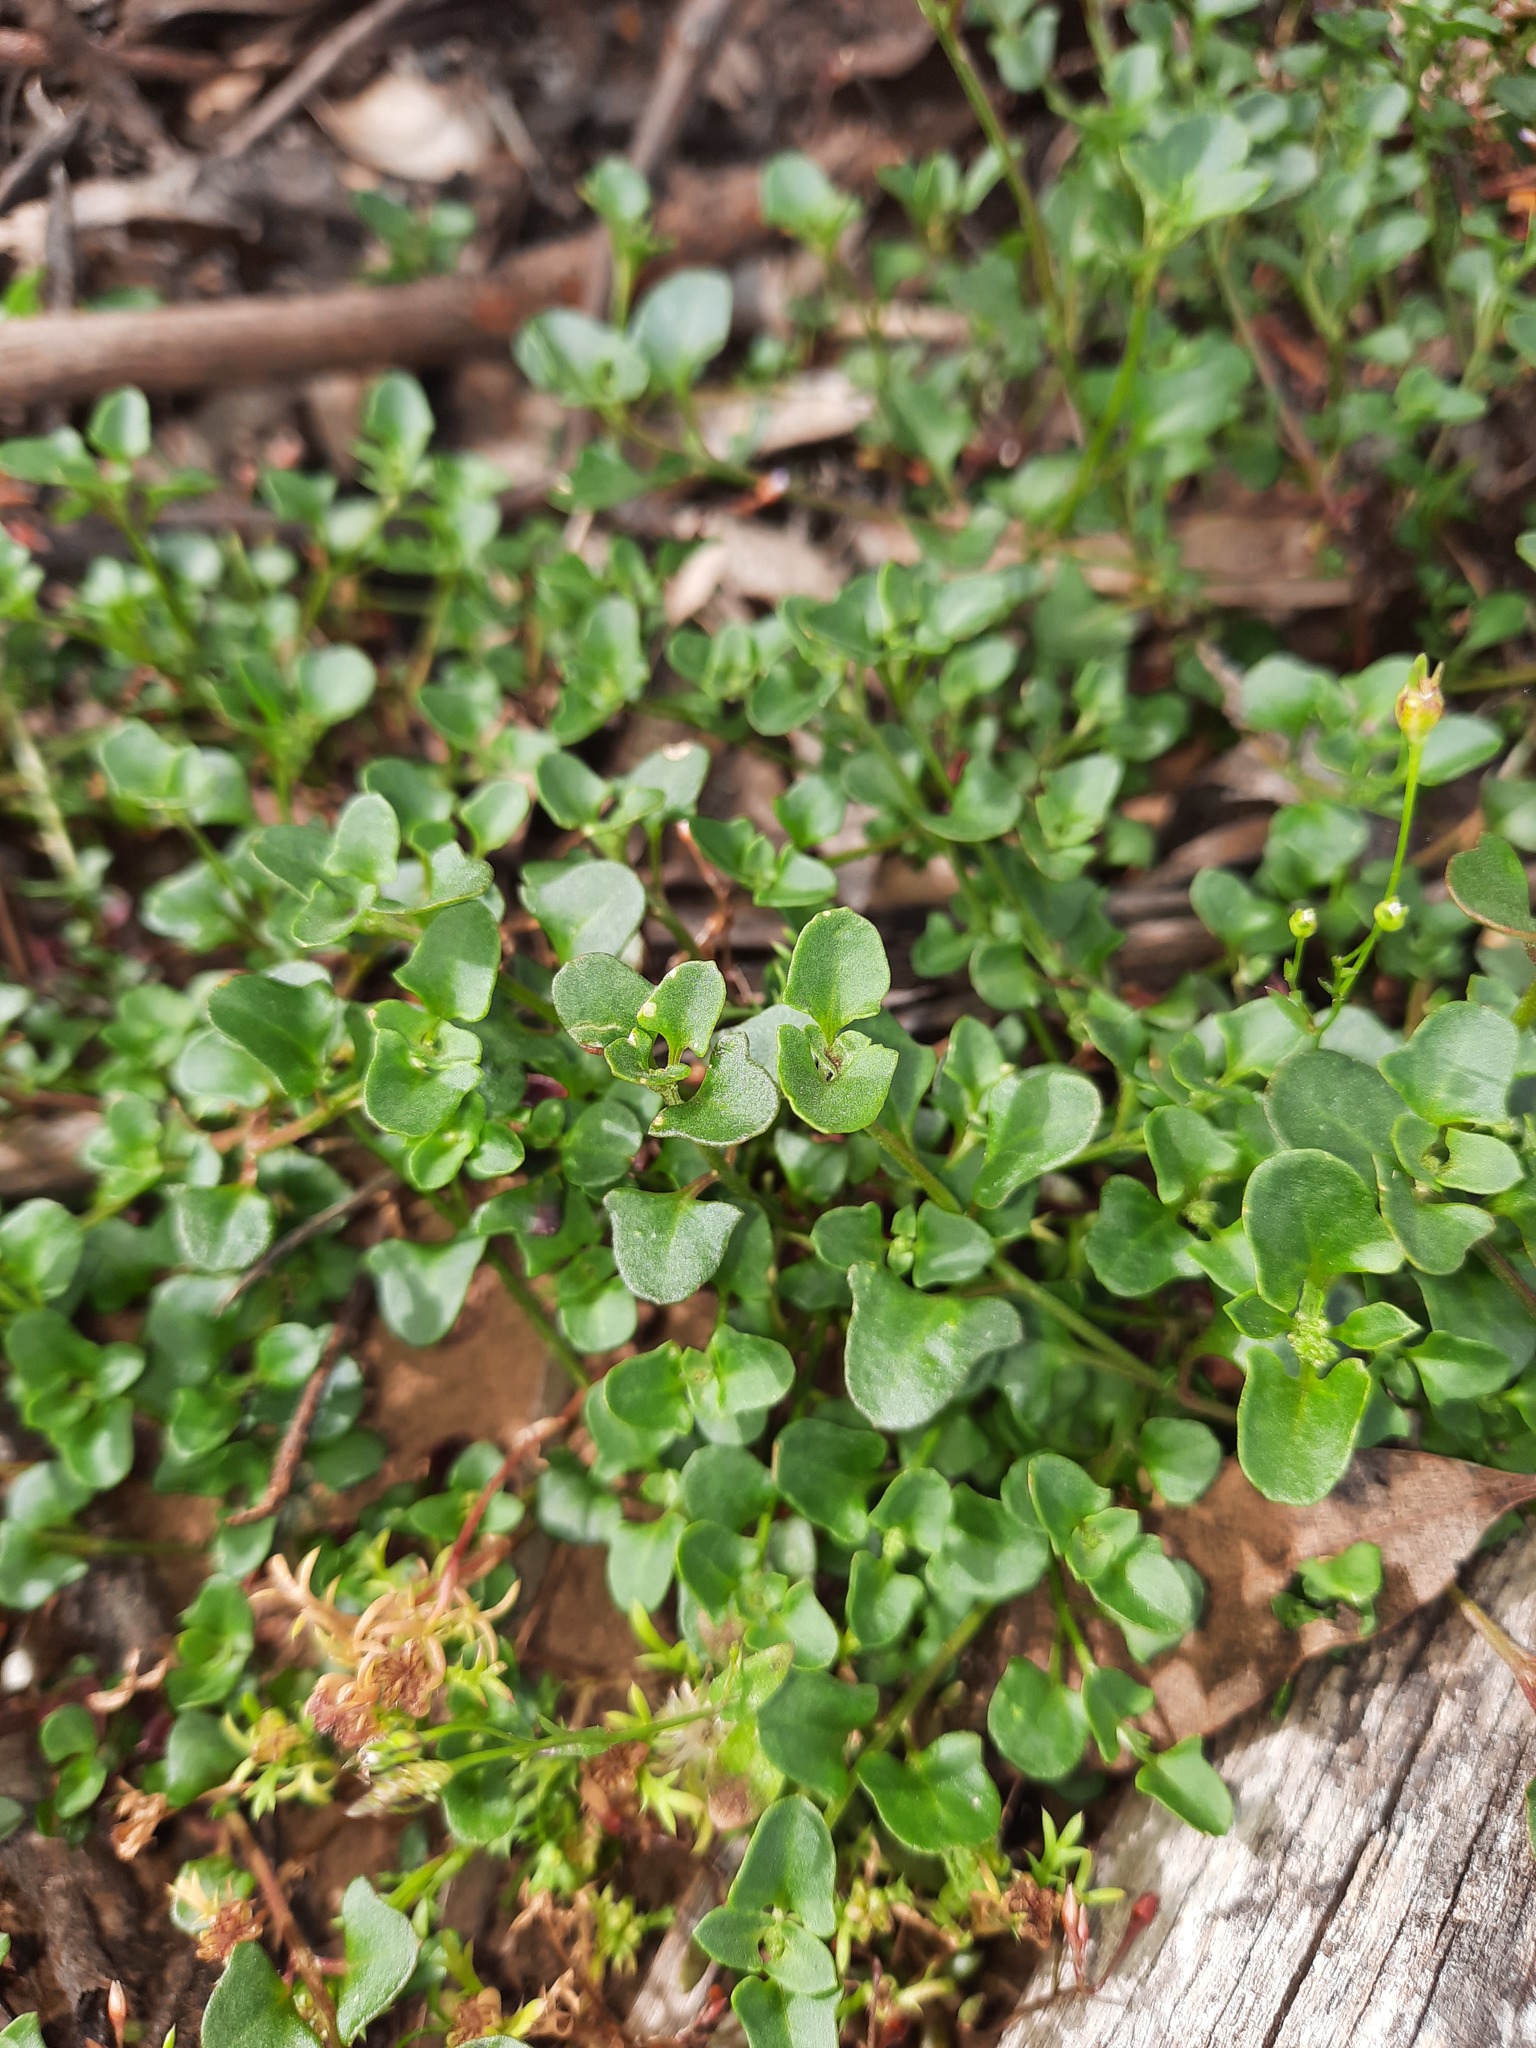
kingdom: Plantae
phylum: Tracheophyta
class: Magnoliopsida
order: Caryophyllales
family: Amaranthaceae
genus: Chenopodium
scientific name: Chenopodium robertianum
